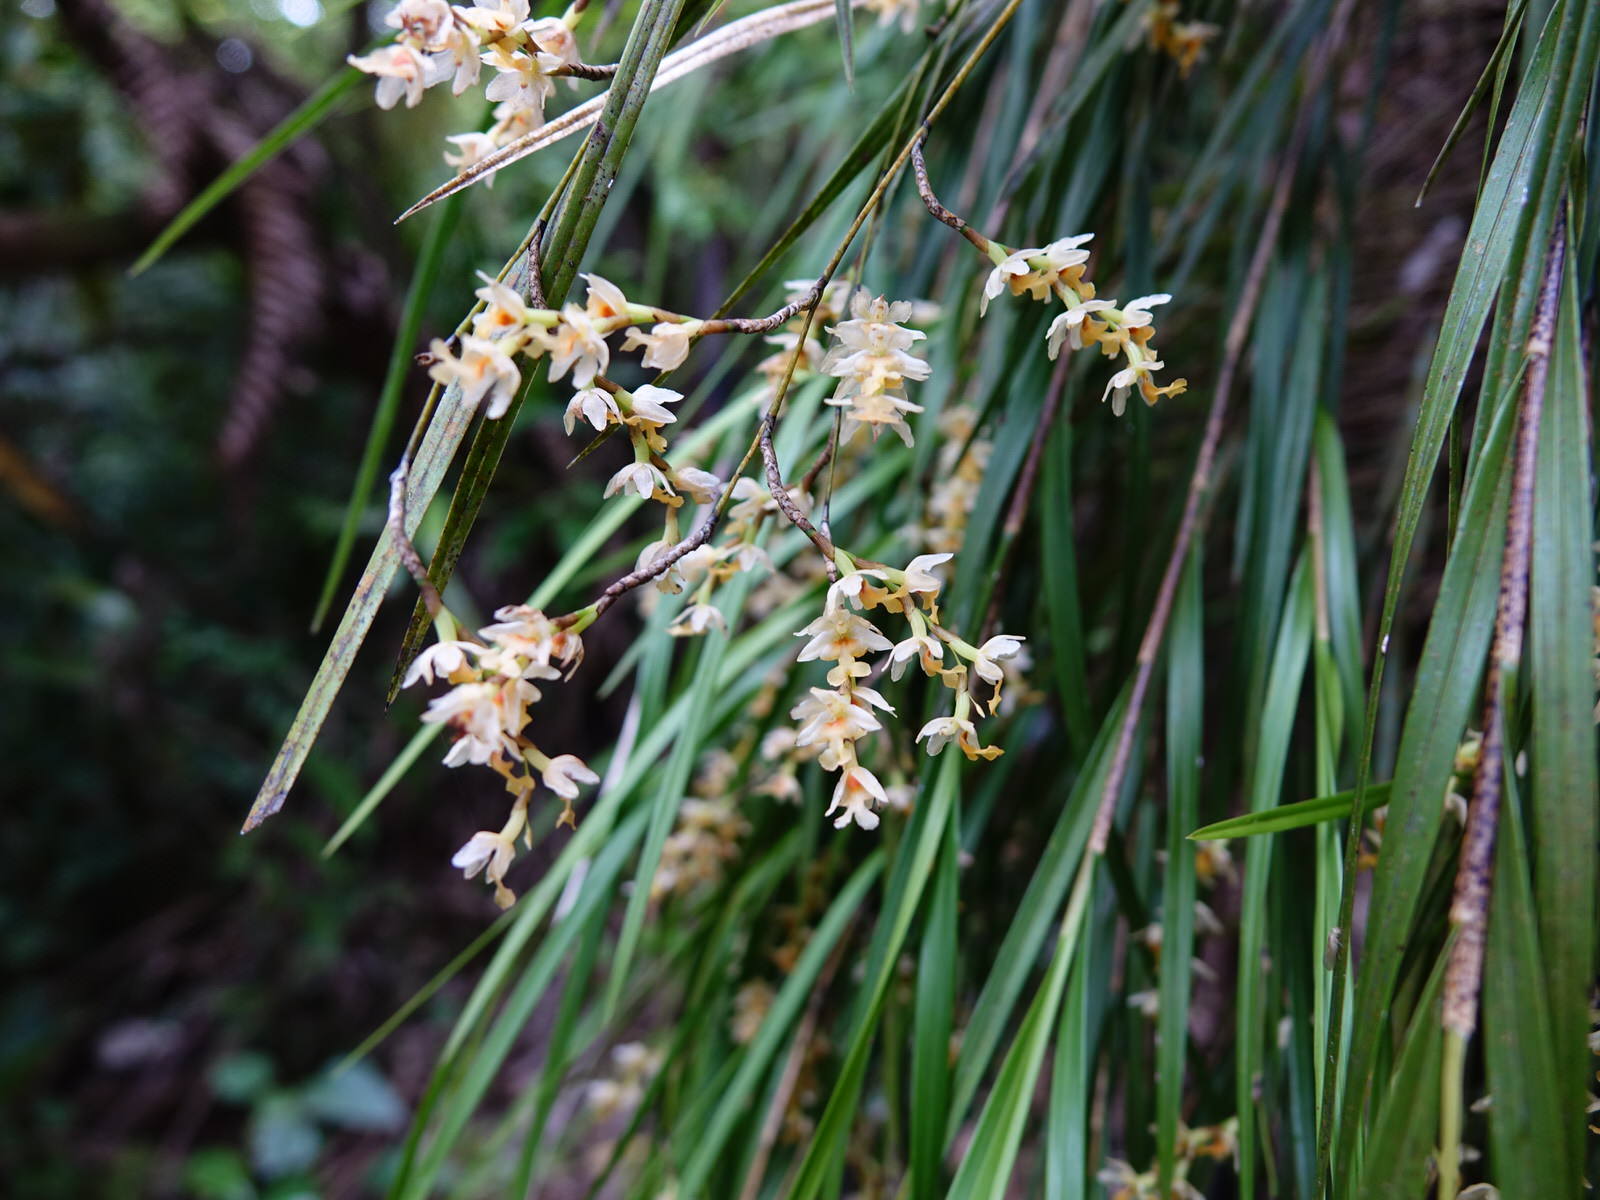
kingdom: Plantae
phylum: Tracheophyta
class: Liliopsida
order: Asparagales
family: Orchidaceae
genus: Earina
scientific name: Earina mucronata
